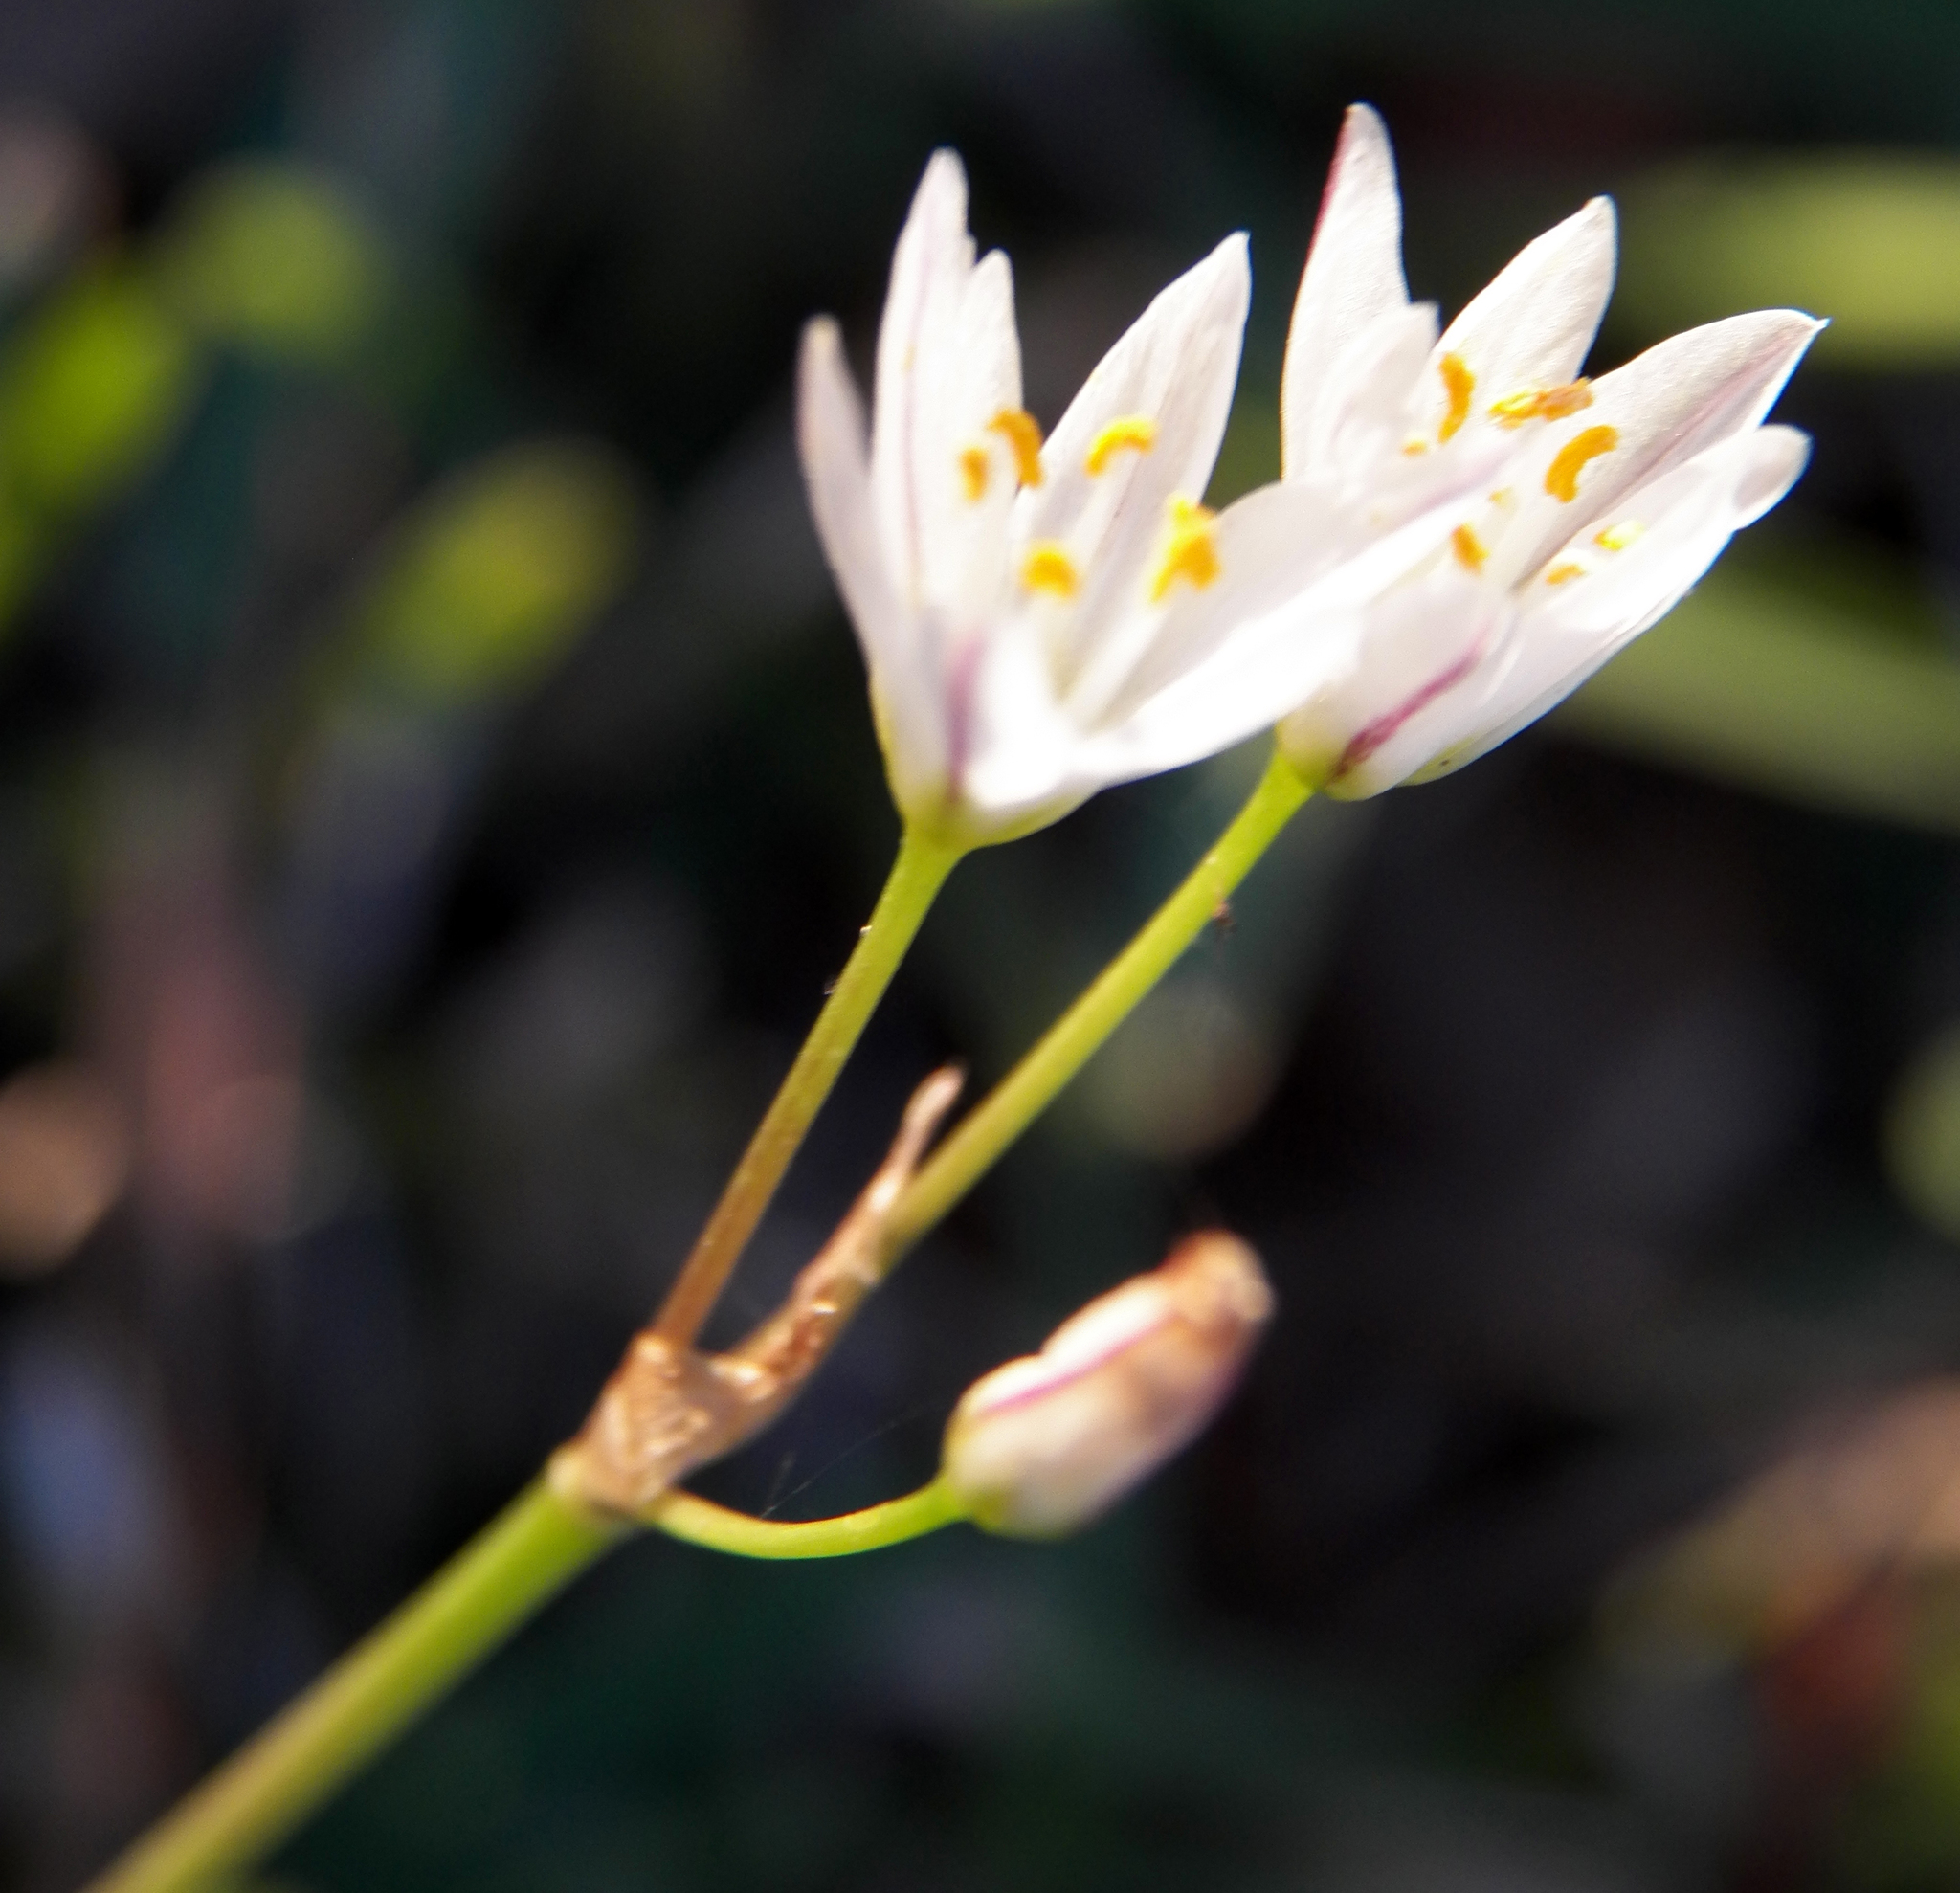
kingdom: Plantae
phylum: Tracheophyta
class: Liliopsida
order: Asparagales
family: Amaryllidaceae
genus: Nothoscordum
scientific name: Nothoscordum bivalve
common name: Crow-poison
